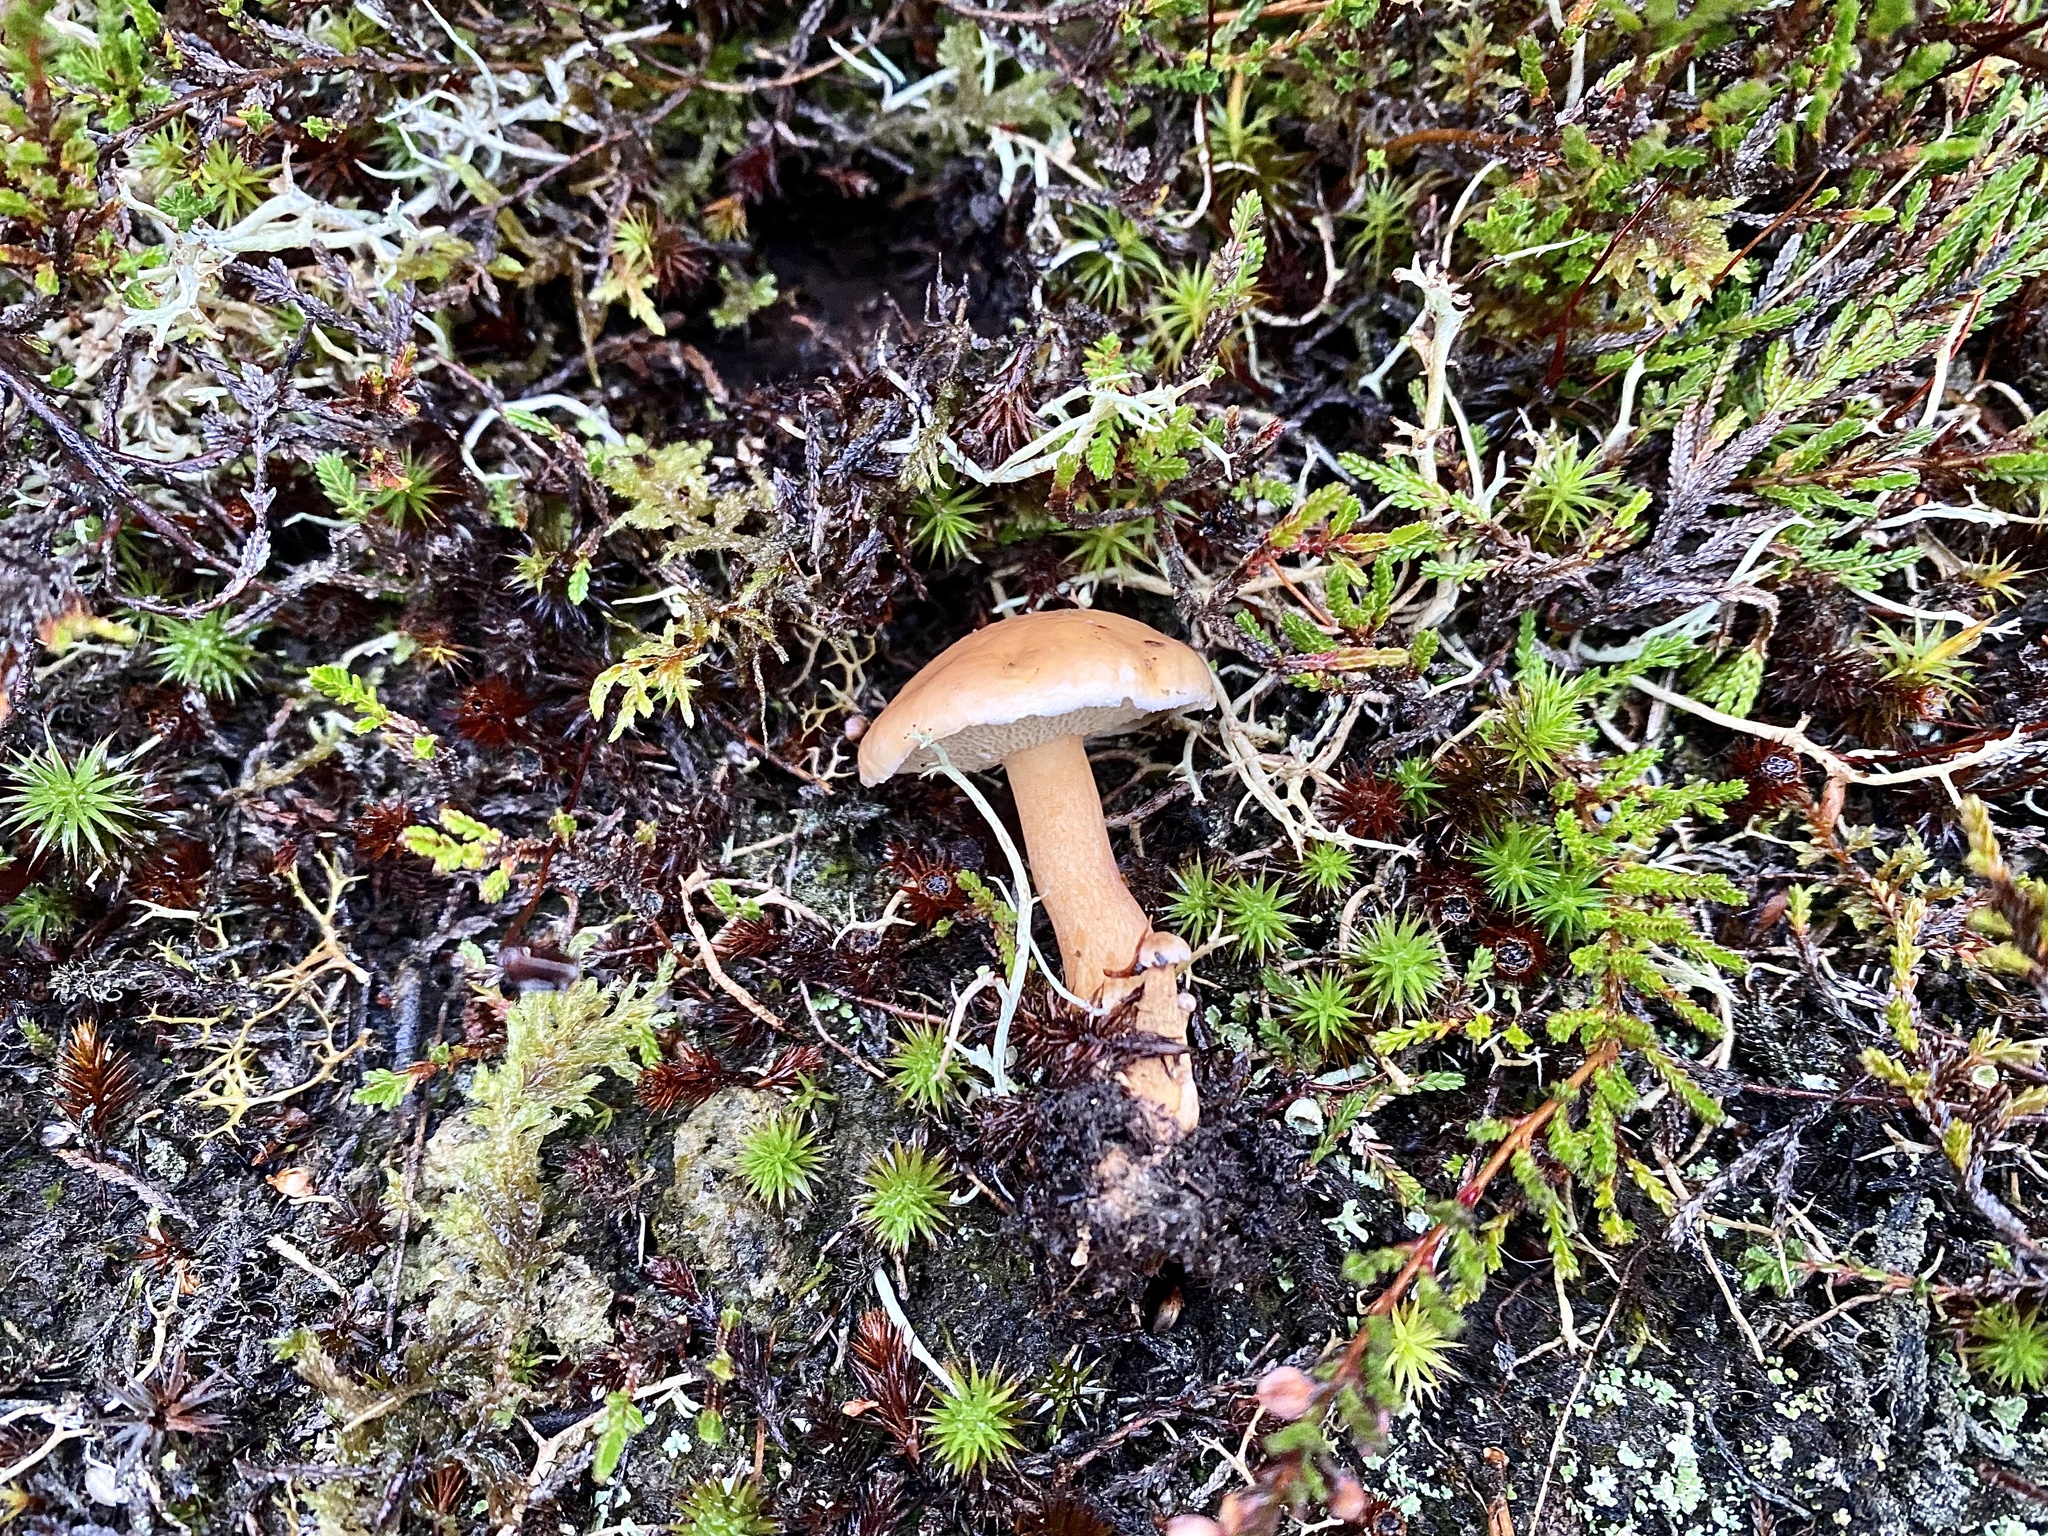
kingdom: Fungi
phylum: Basidiomycota
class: Agaricomycetes
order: Boletales
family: Suillaceae
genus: Suillus
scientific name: Suillus bovinus
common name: Bovine bolete
